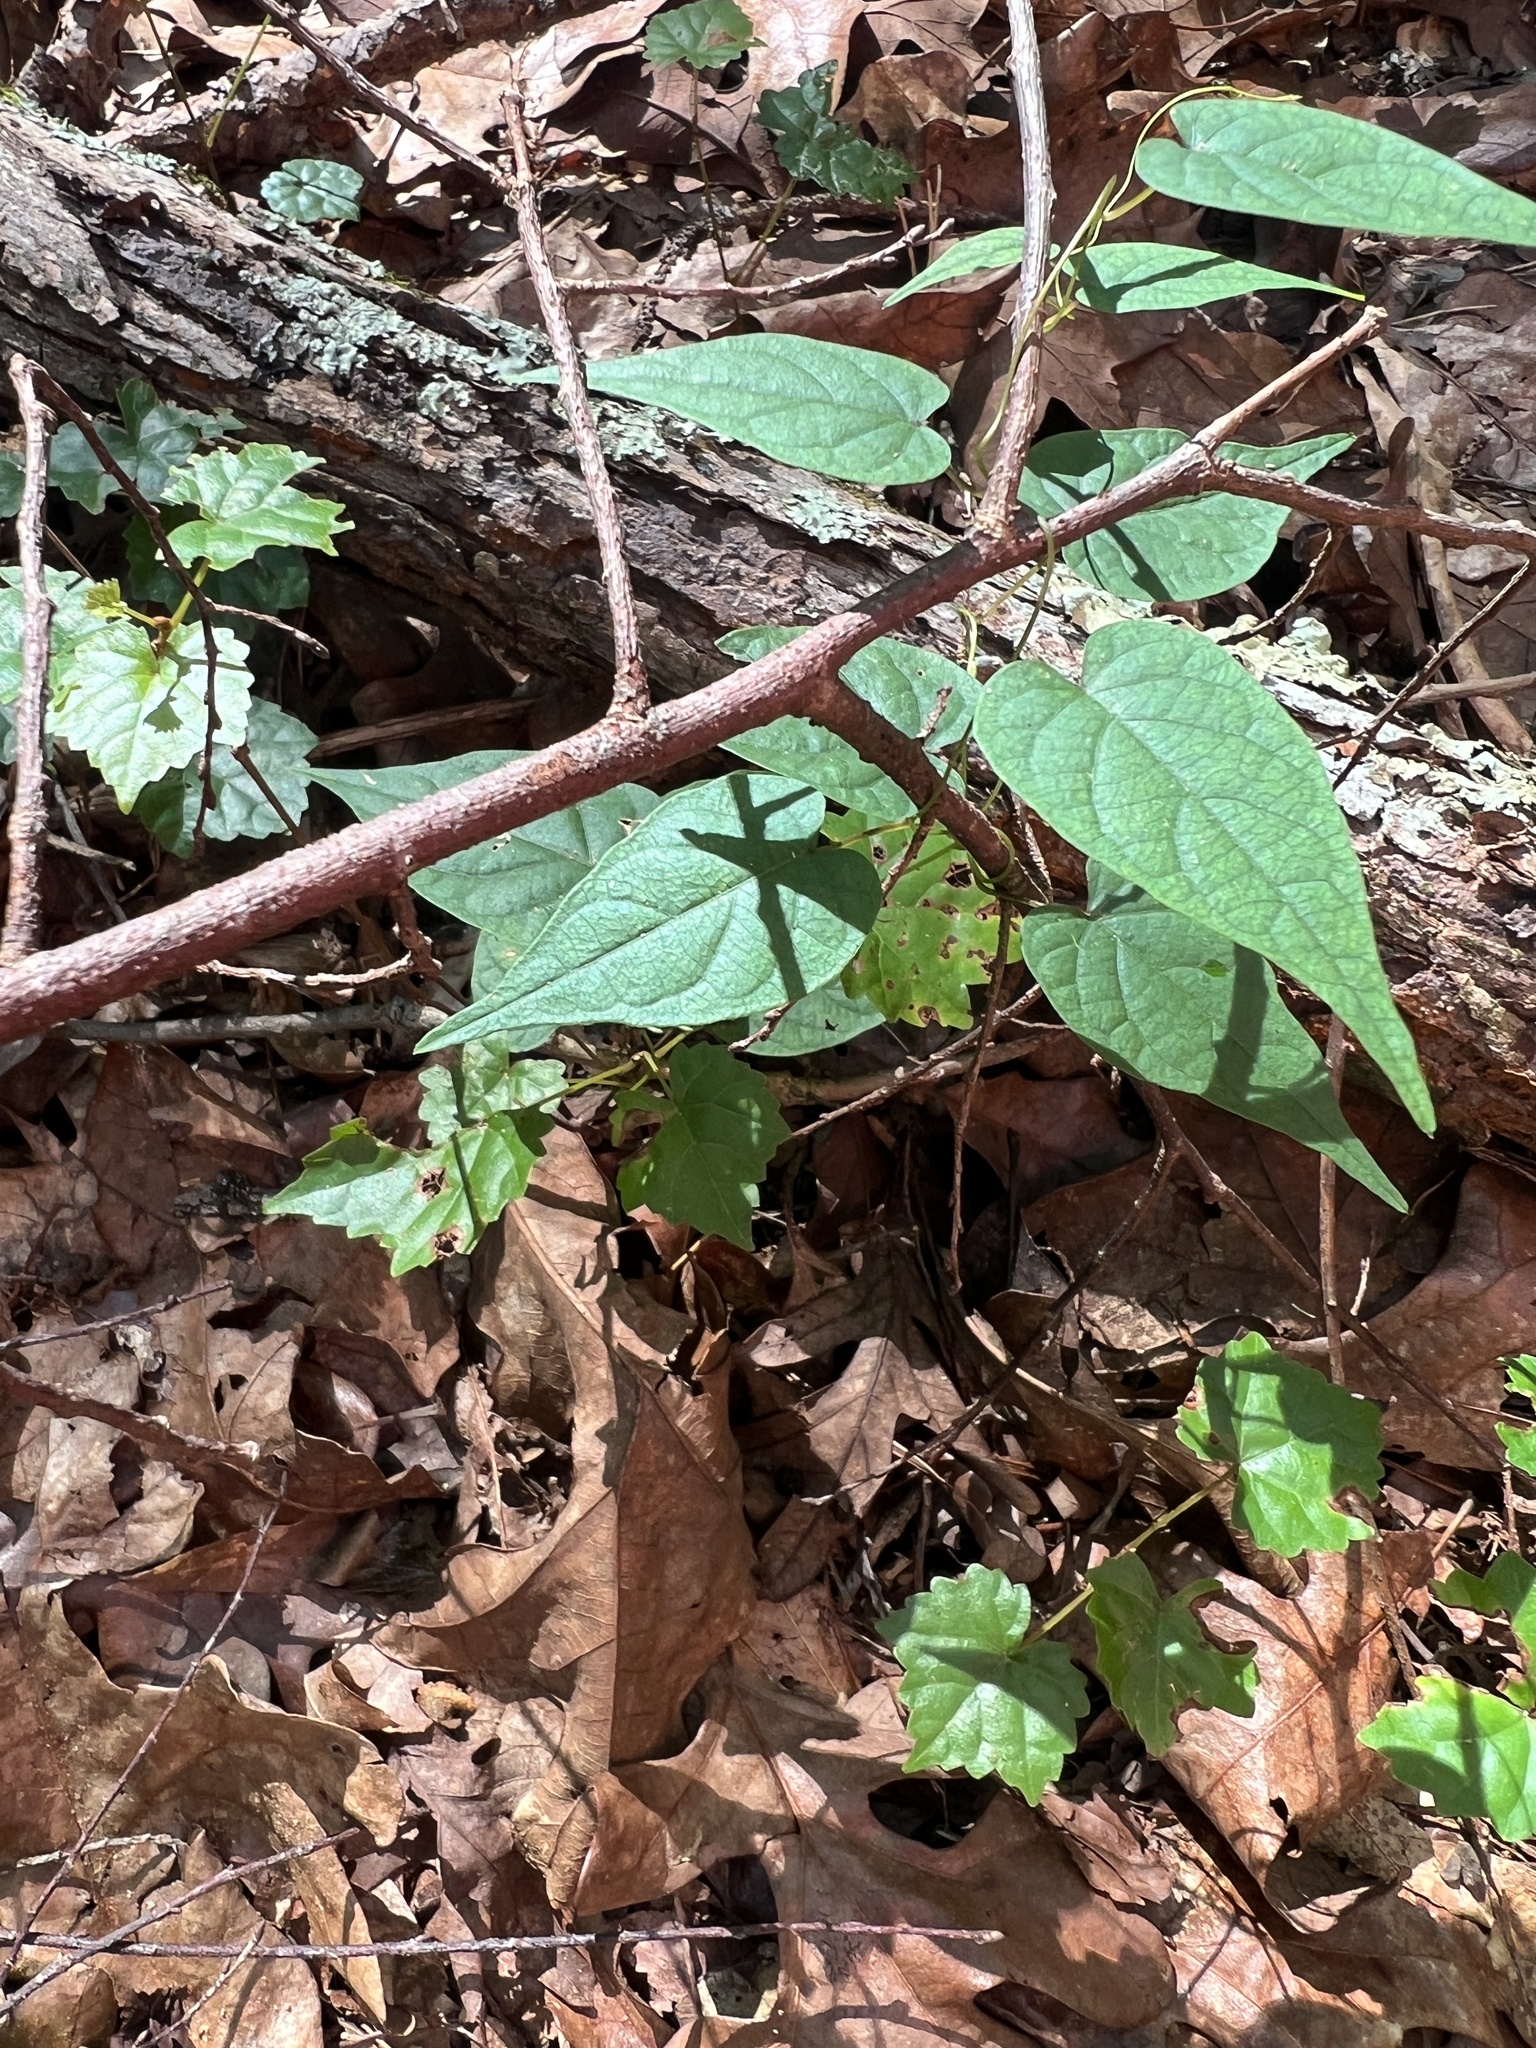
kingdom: Plantae
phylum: Tracheophyta
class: Magnoliopsida
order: Solanales
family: Convolvulaceae
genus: Ipomoea
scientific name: Ipomoea pandurata
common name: Man-of-the-earth
